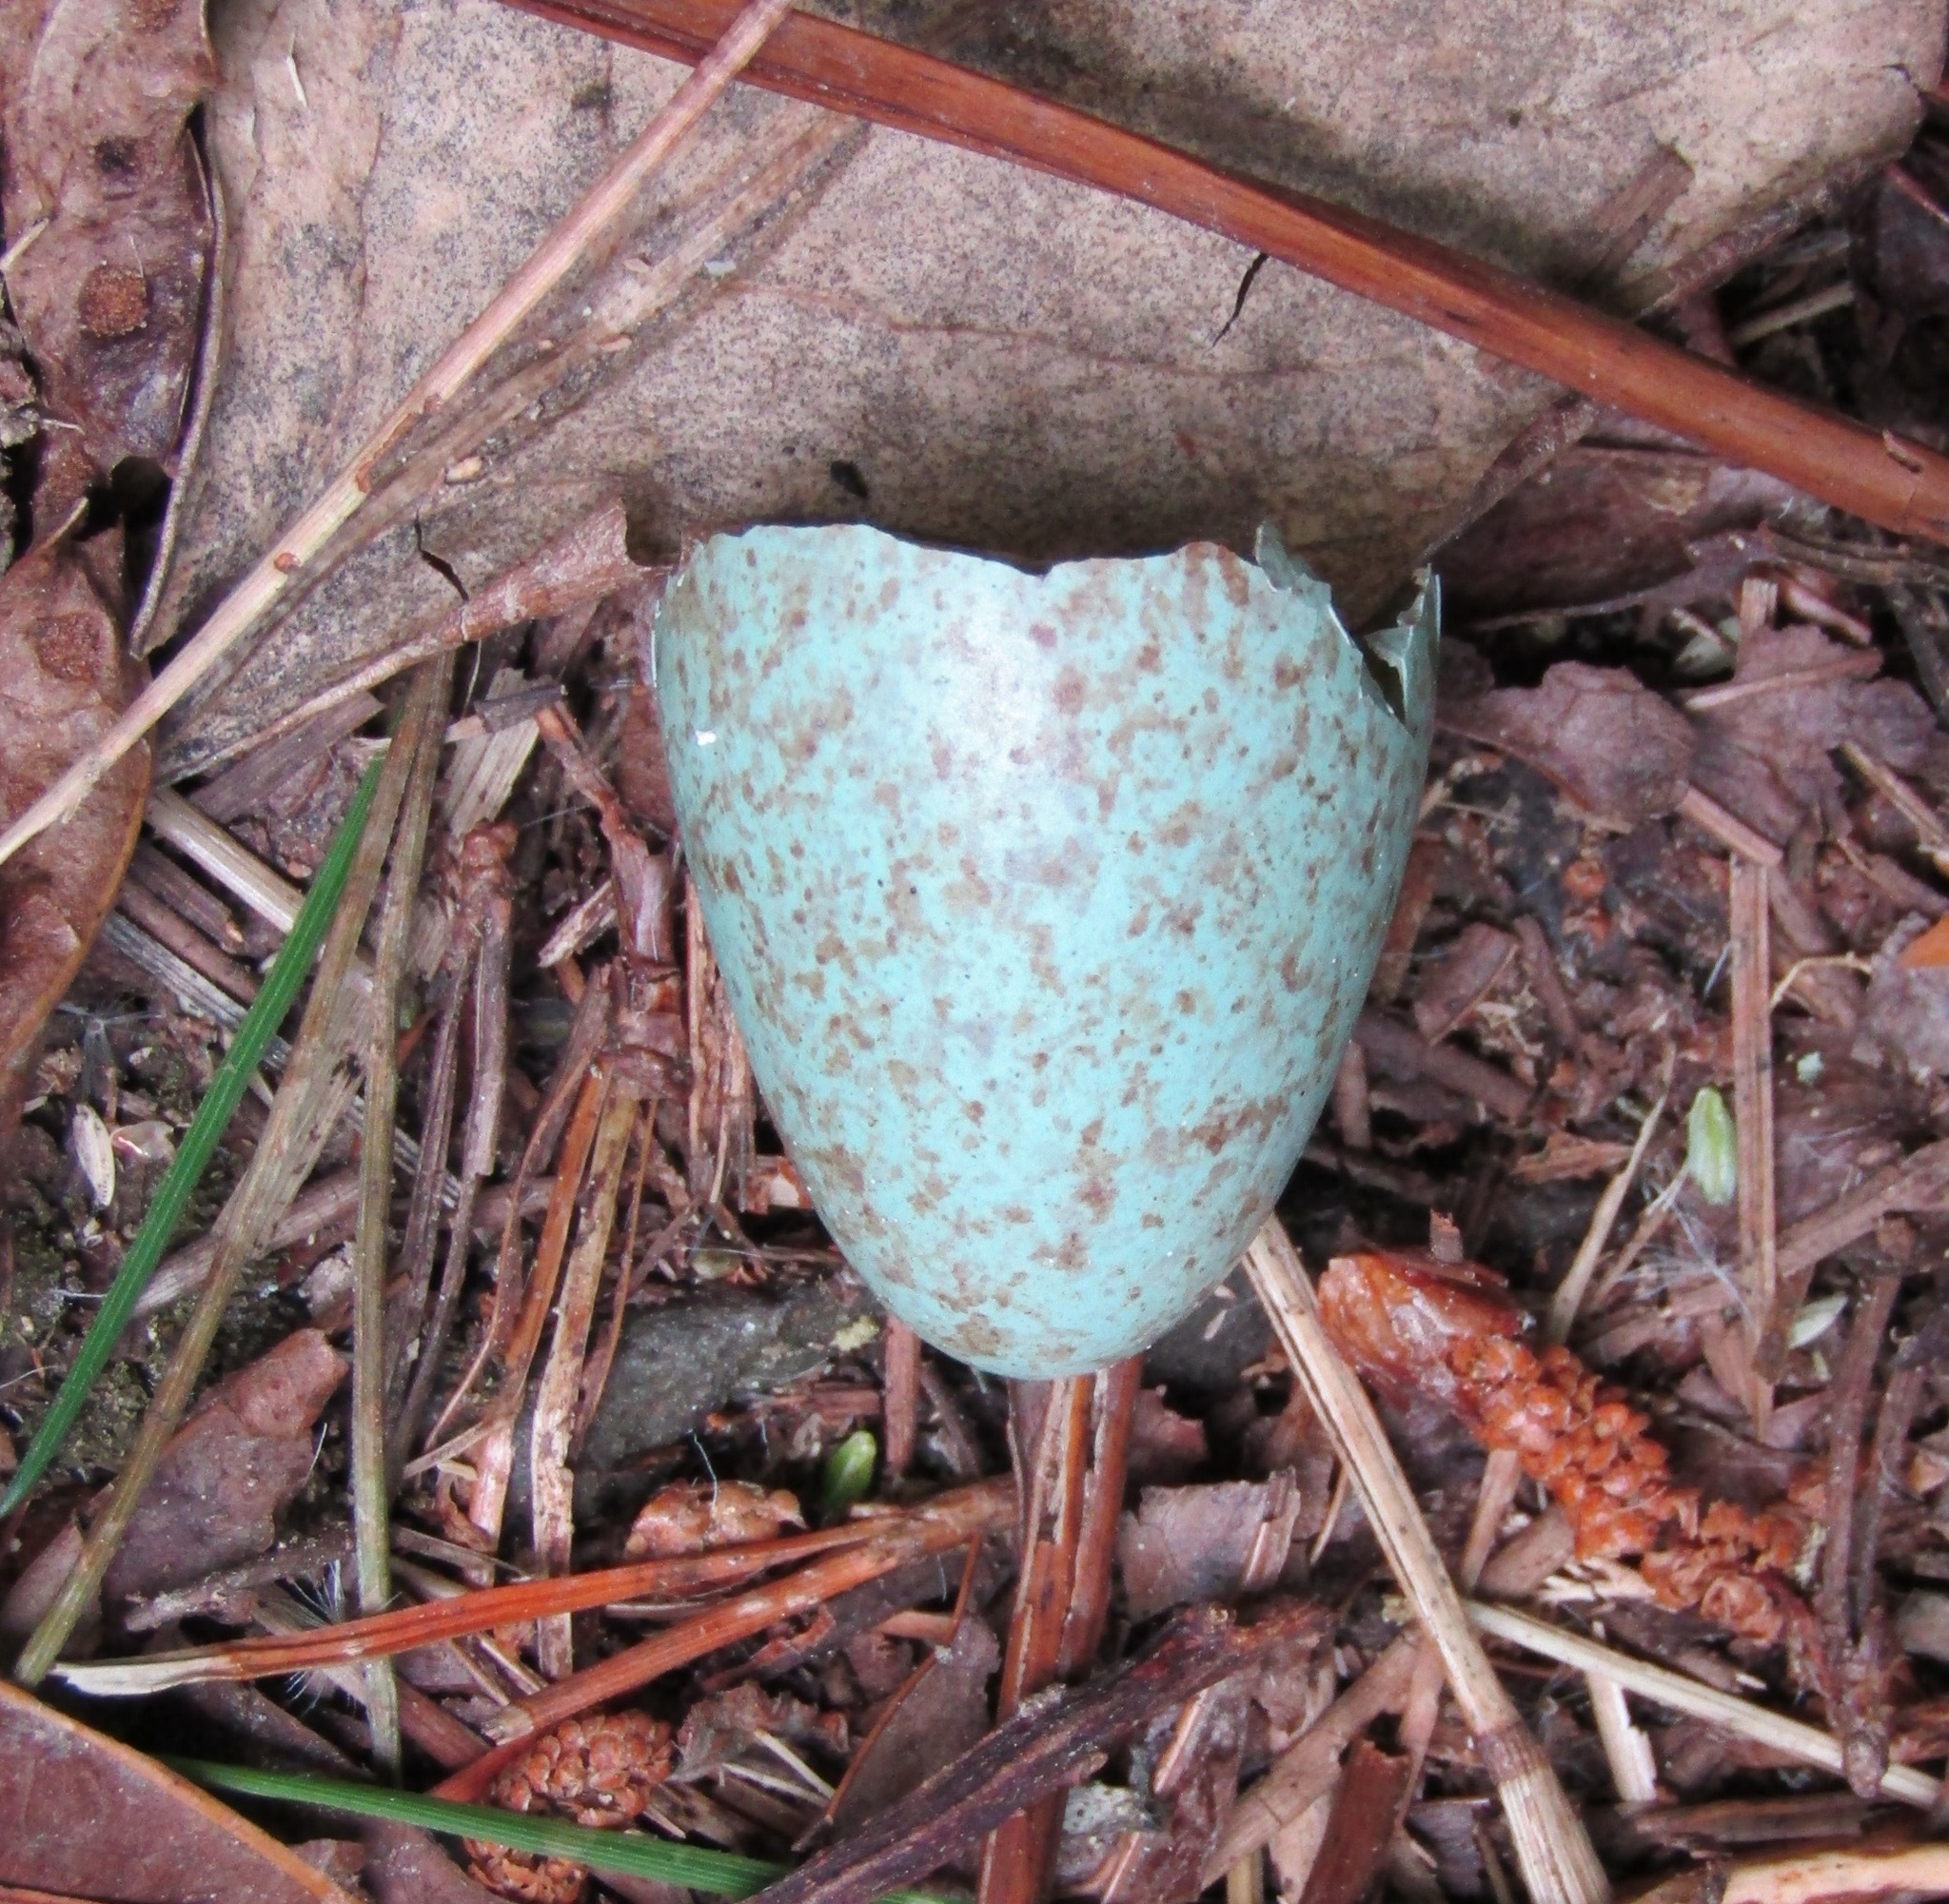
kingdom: Animalia
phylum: Chordata
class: Aves
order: Passeriformes
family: Turdidae
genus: Turdus
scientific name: Turdus merula
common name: Common blackbird
